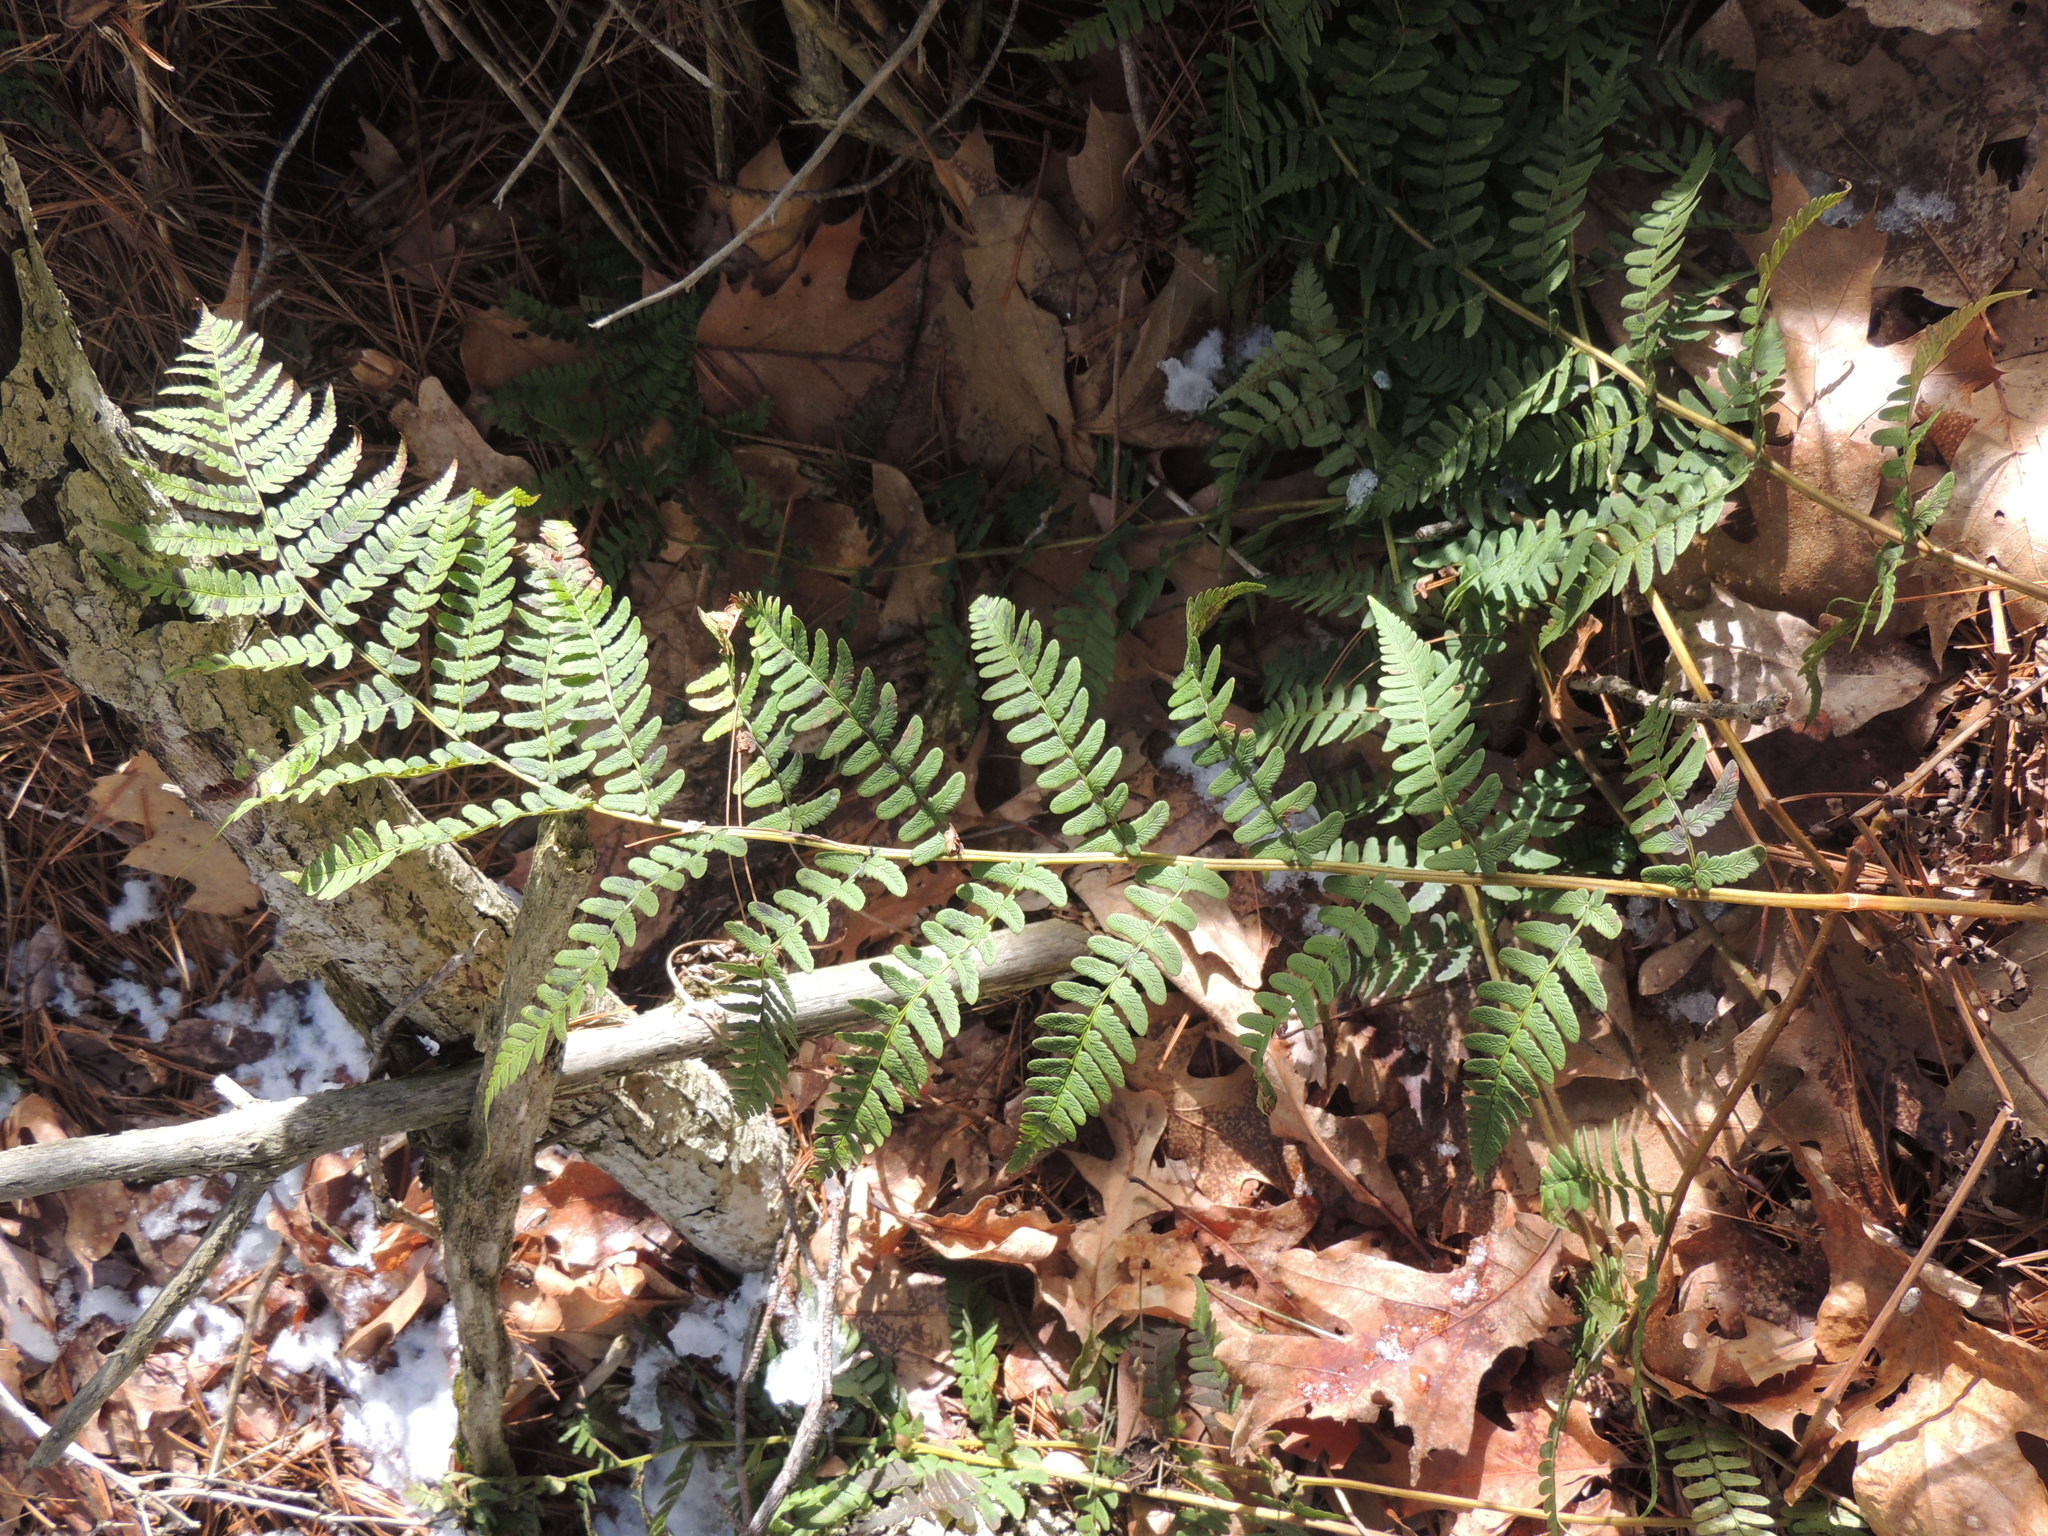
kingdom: Plantae
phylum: Tracheophyta
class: Polypodiopsida
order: Polypodiales
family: Dryopteridaceae
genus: Dryopteris
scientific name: Dryopteris marginalis
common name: Marginal wood fern
